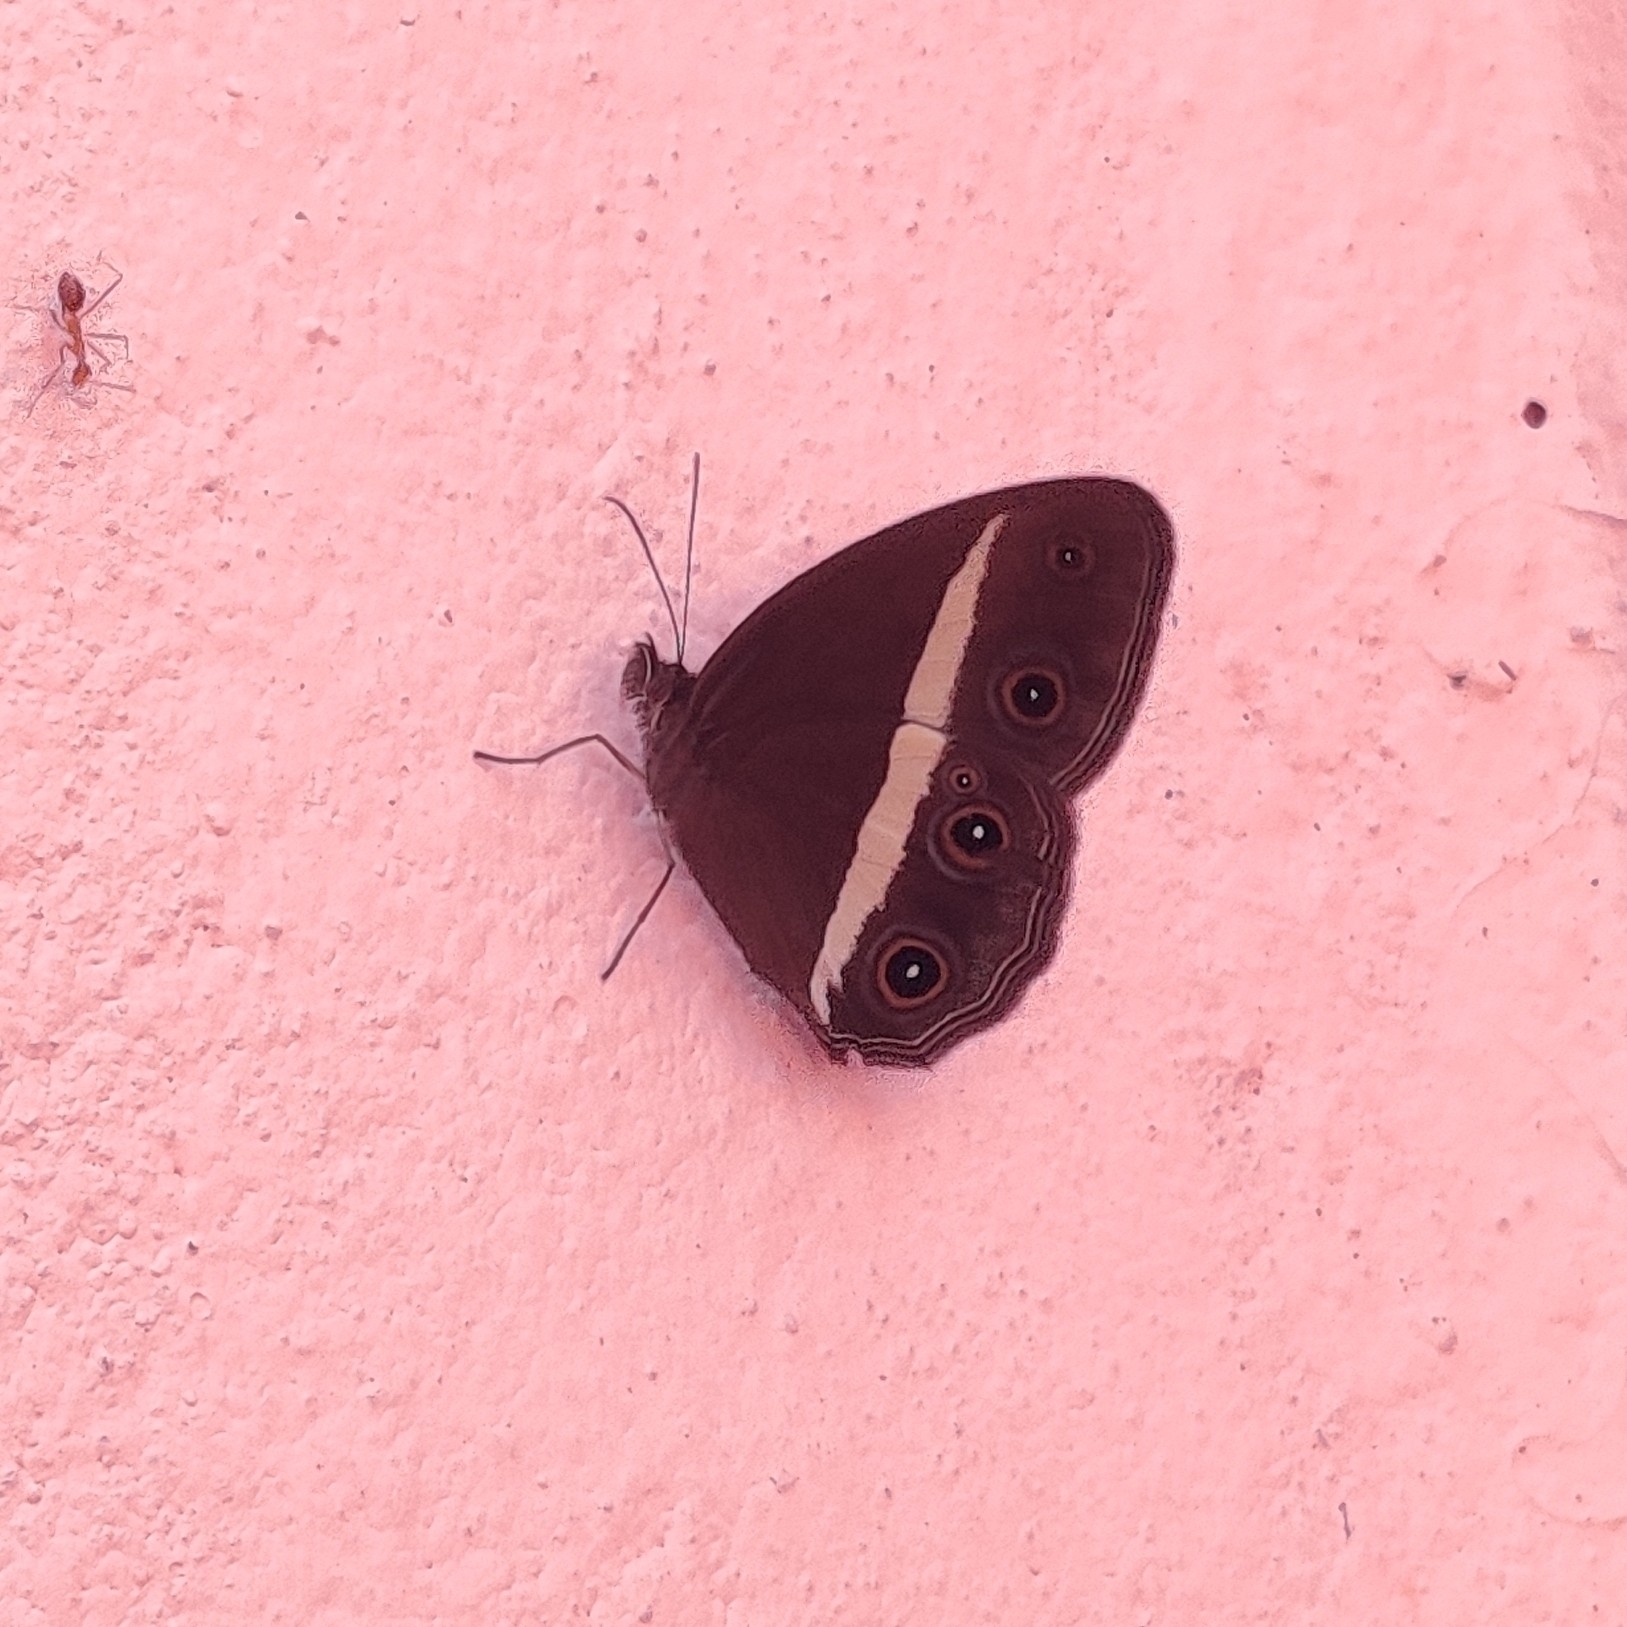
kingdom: Animalia
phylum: Arthropoda
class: Insecta
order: Lepidoptera
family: Nymphalidae
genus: Orsotriaena
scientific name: Orsotriaena medus
